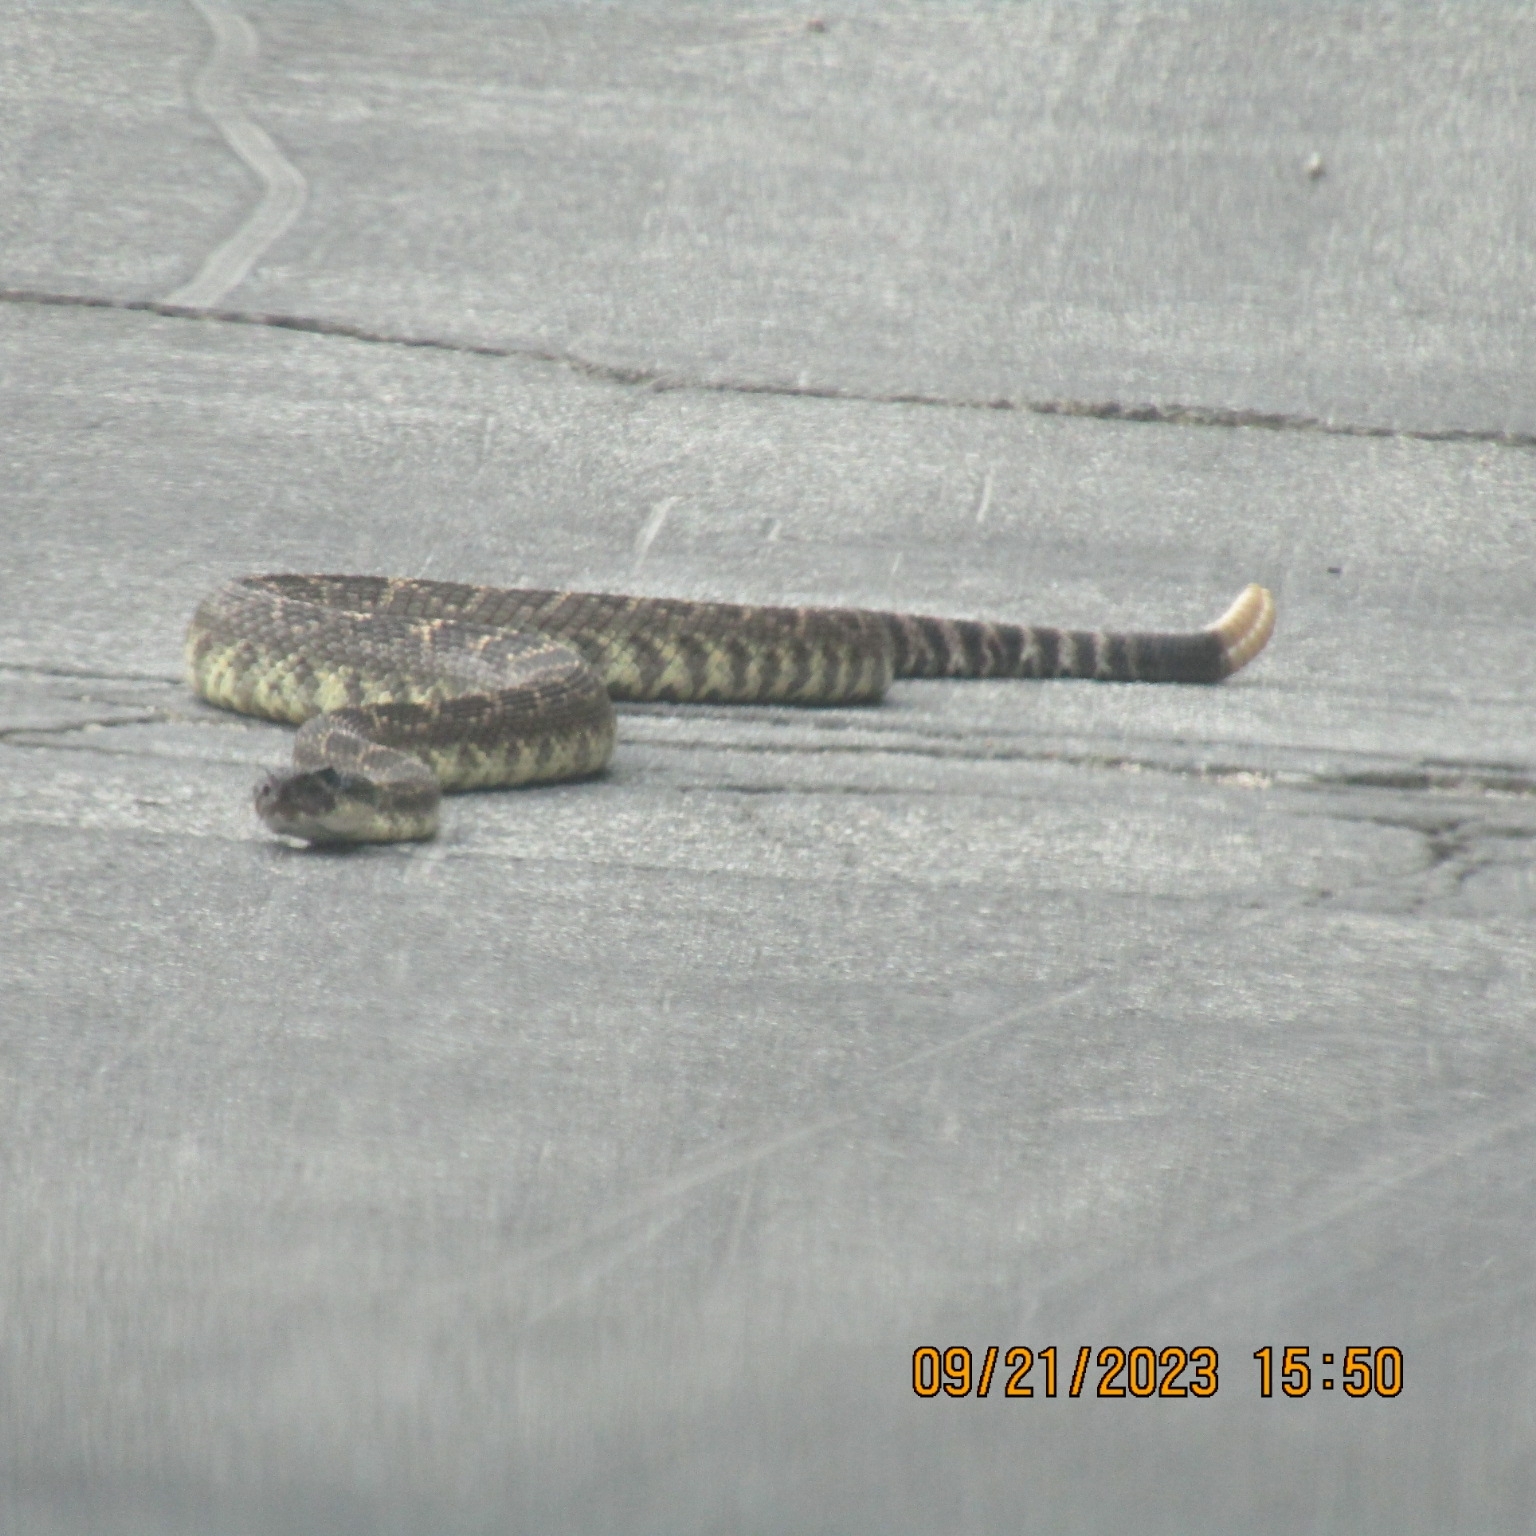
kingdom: Animalia
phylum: Chordata
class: Squamata
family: Viperidae
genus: Crotalus
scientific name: Crotalus oreganus
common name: Abyssus
